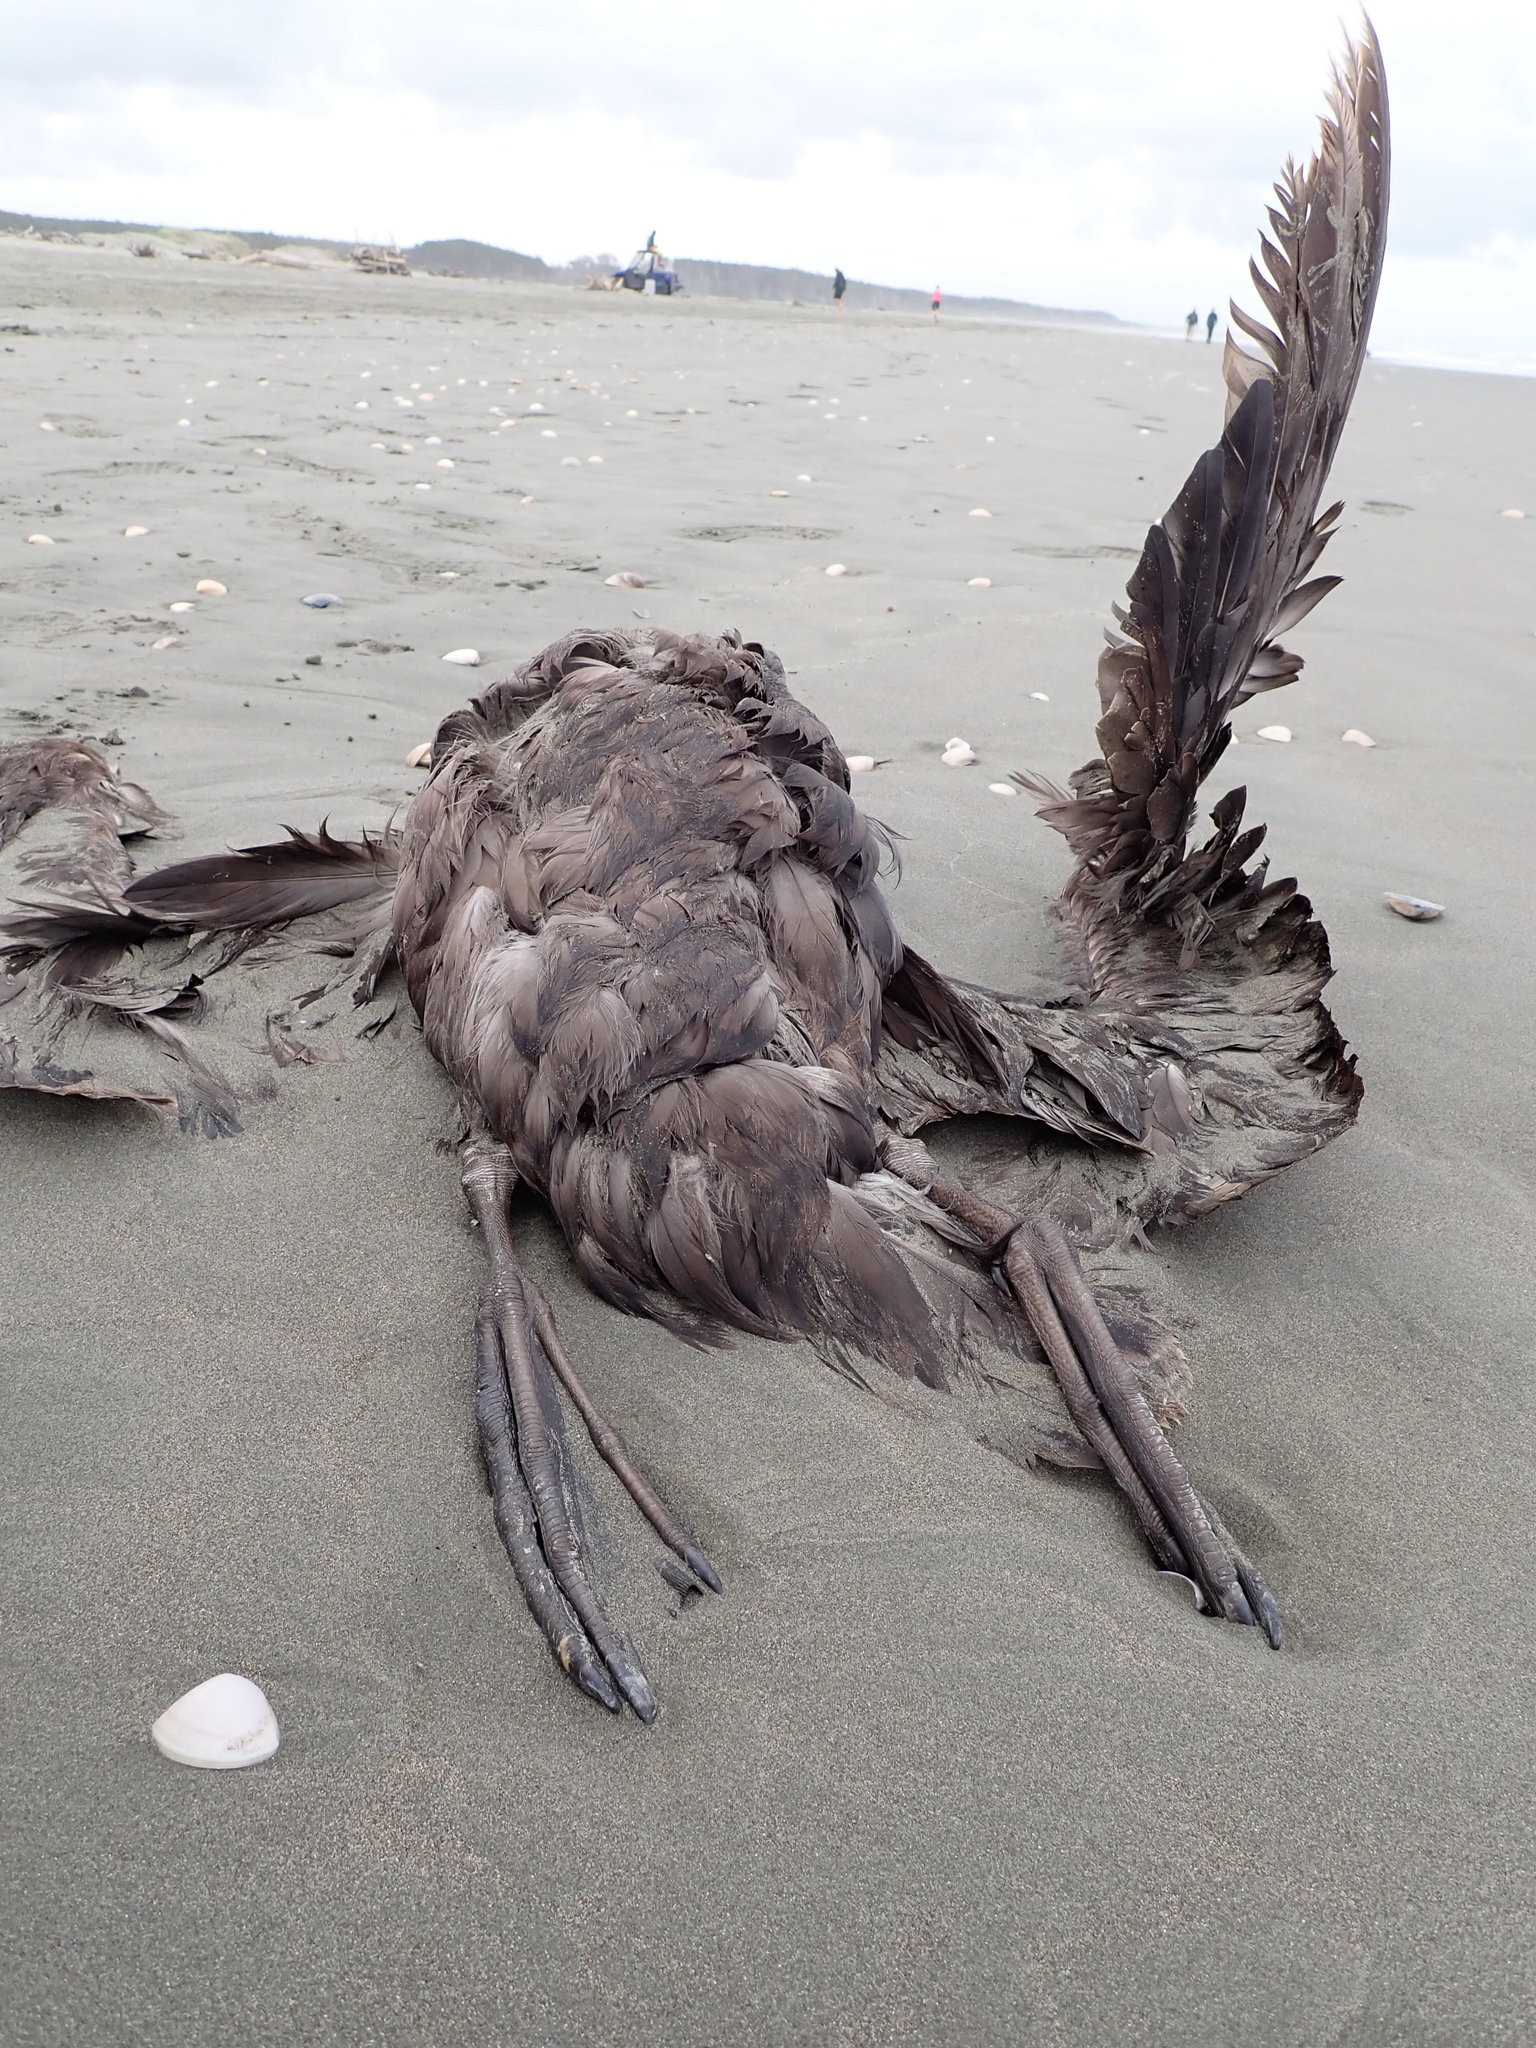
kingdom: Animalia
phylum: Chordata
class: Aves
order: Procellariiformes
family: Procellariidae
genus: Macronectes
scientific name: Macronectes giganteus
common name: Southern giant petrel
